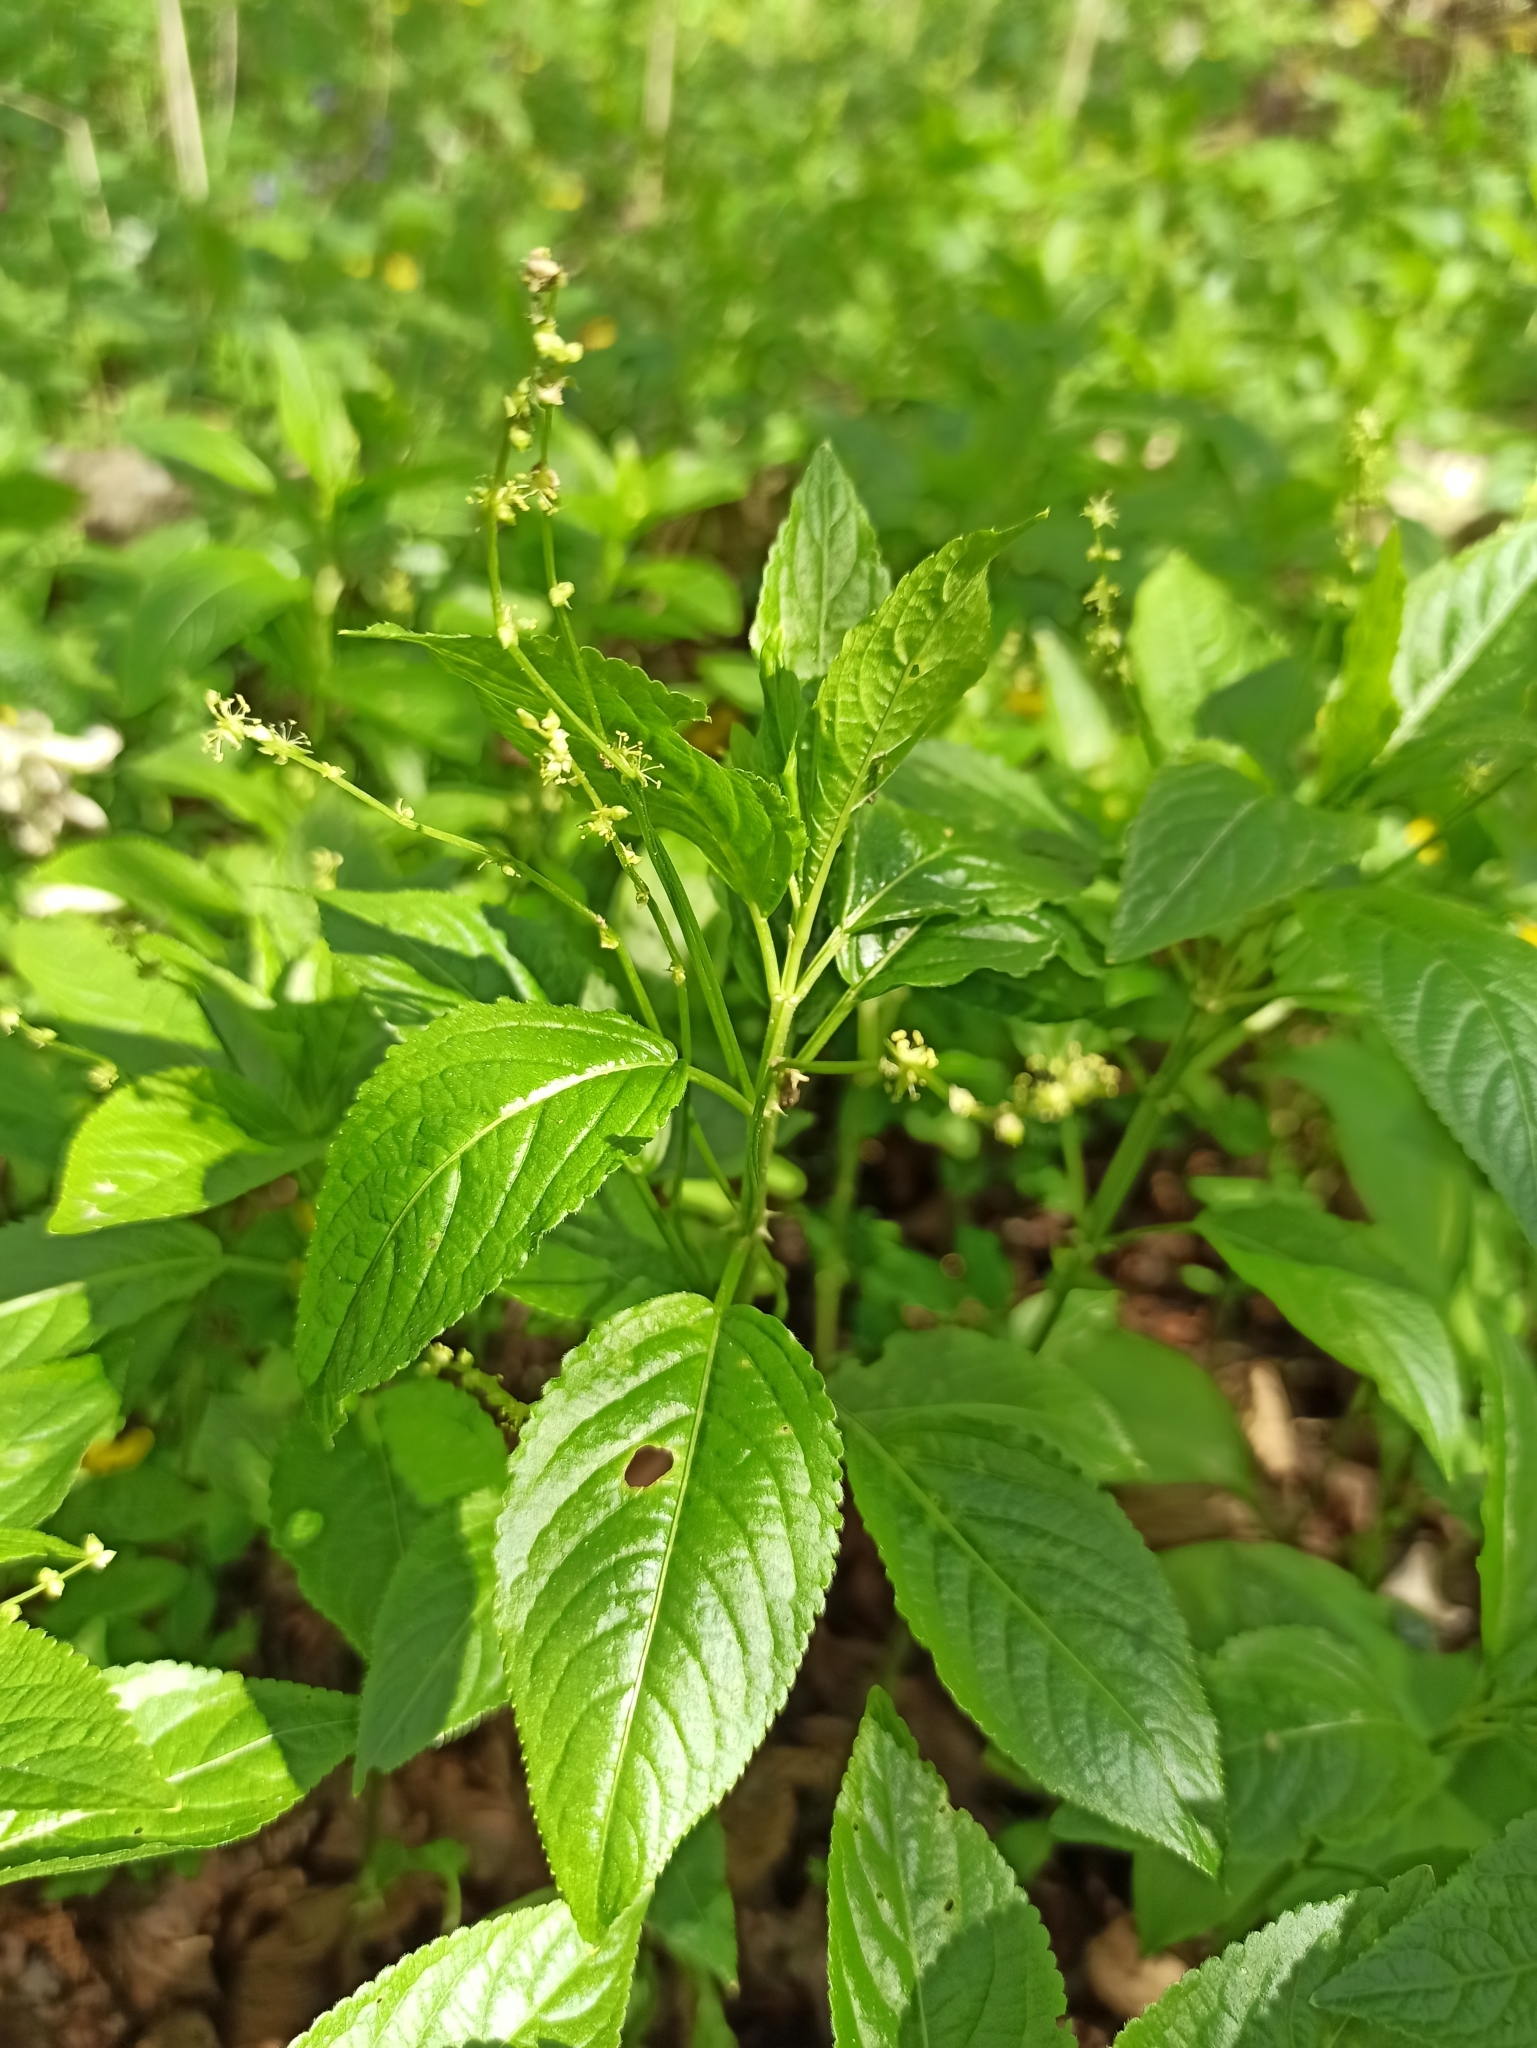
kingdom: Plantae
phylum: Tracheophyta
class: Magnoliopsida
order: Malpighiales
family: Euphorbiaceae
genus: Mercurialis
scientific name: Mercurialis perennis
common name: Dog mercury
